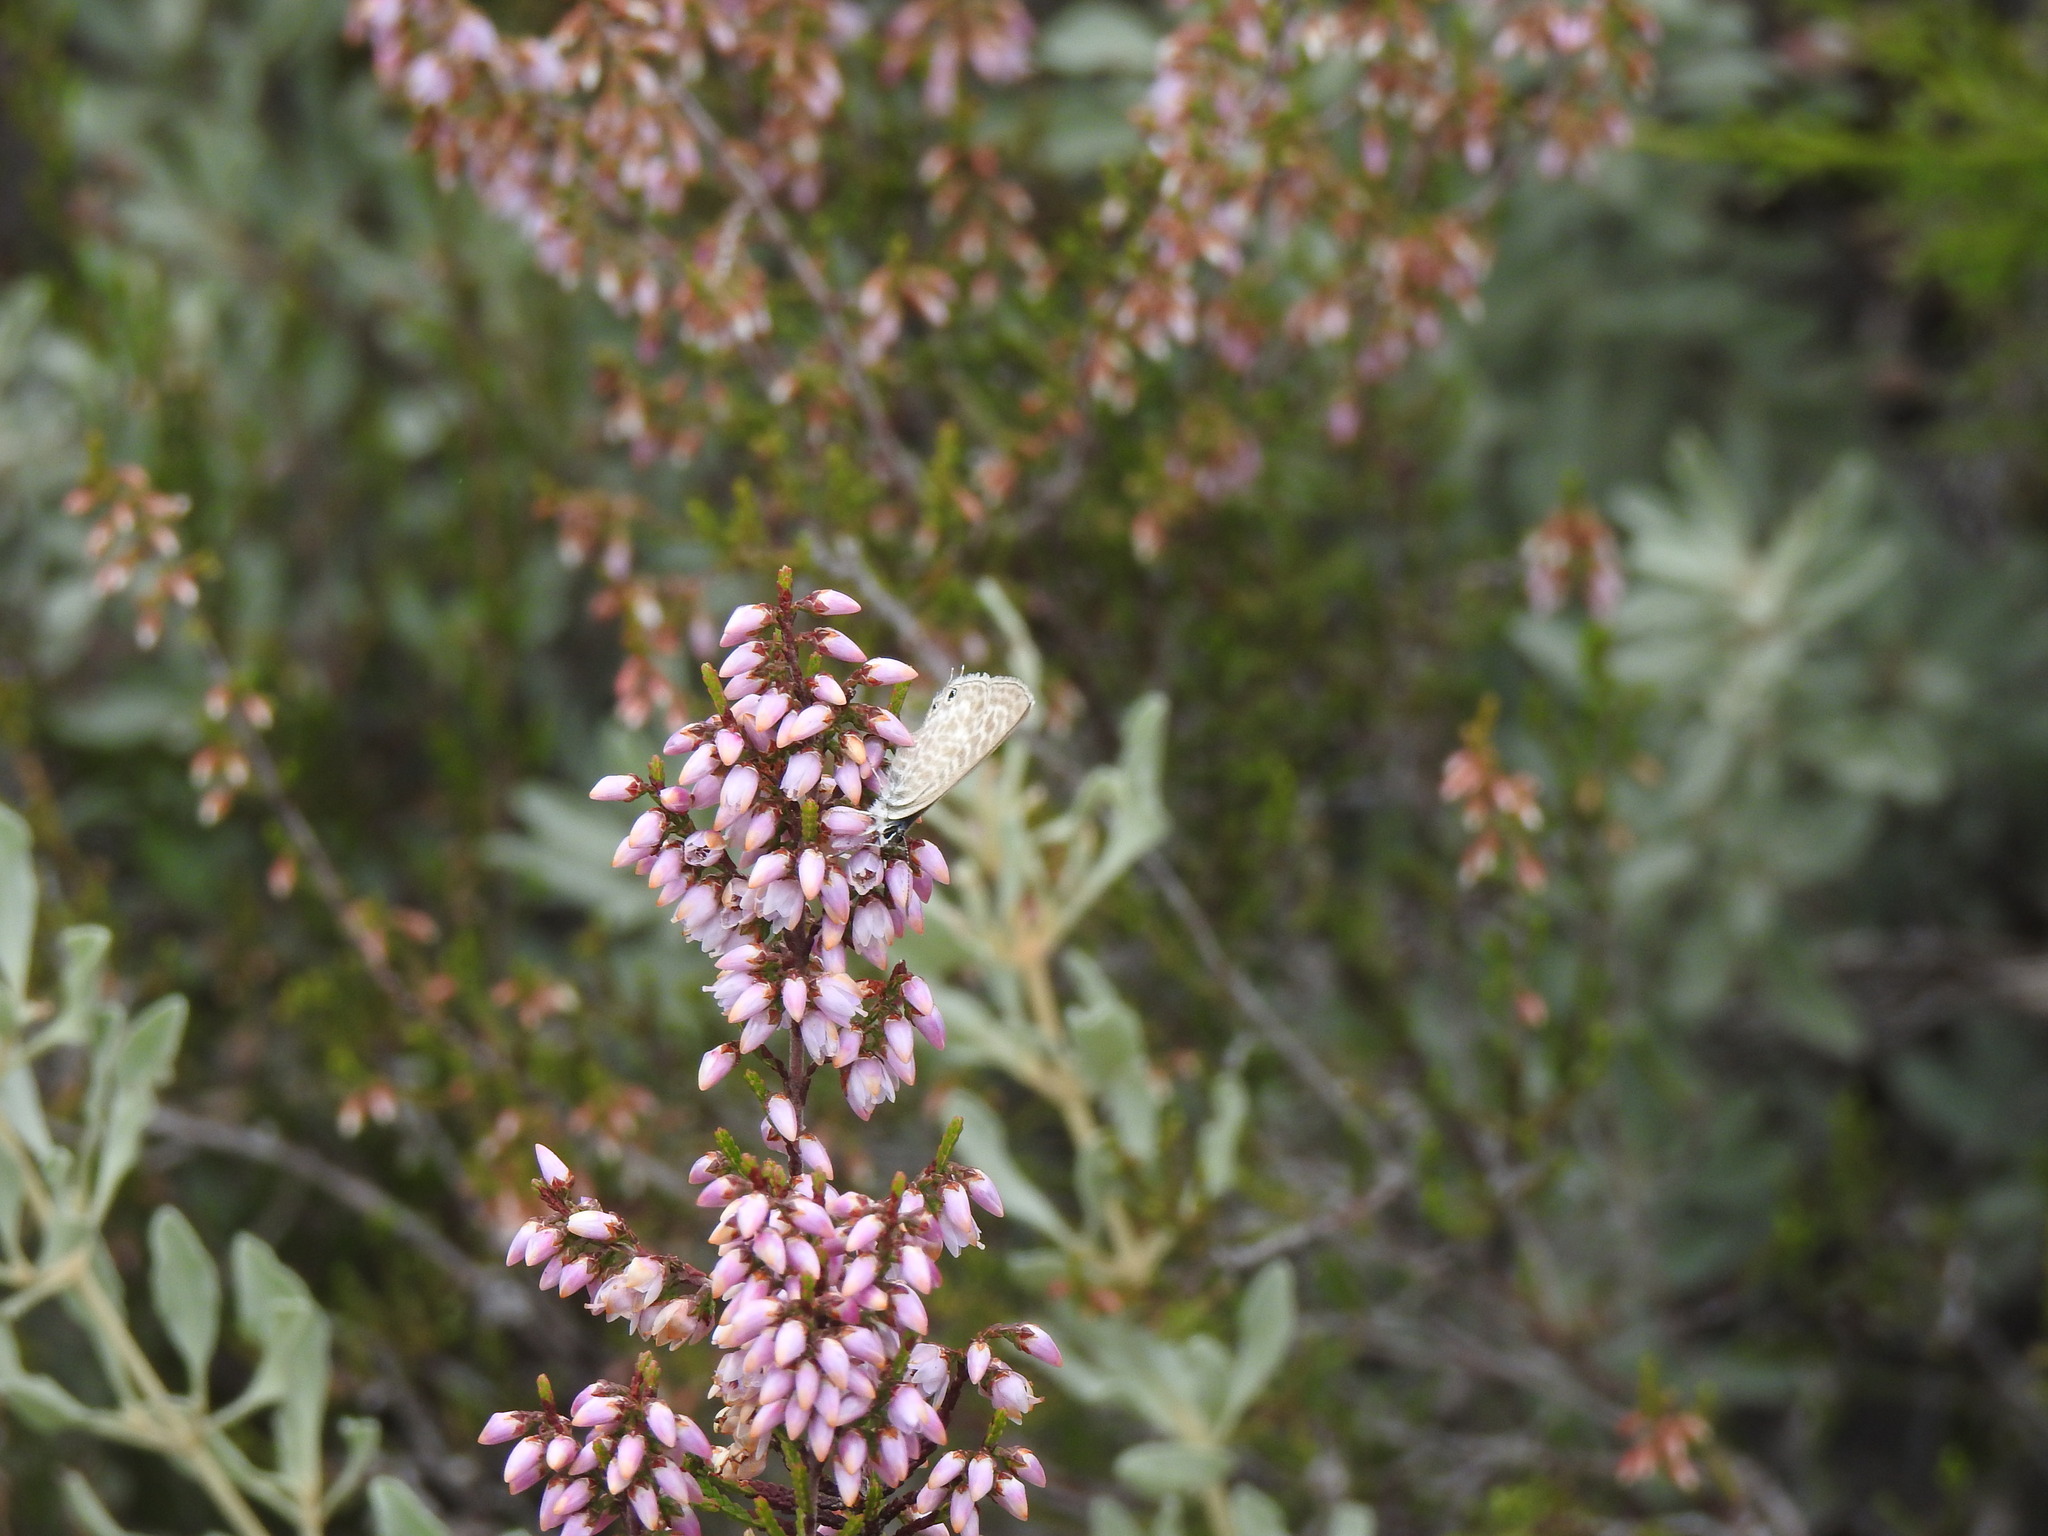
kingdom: Plantae
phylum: Tracheophyta
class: Magnoliopsida
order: Ericales
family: Ericaceae
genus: Calluna
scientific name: Calluna vulgaris
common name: Heather
